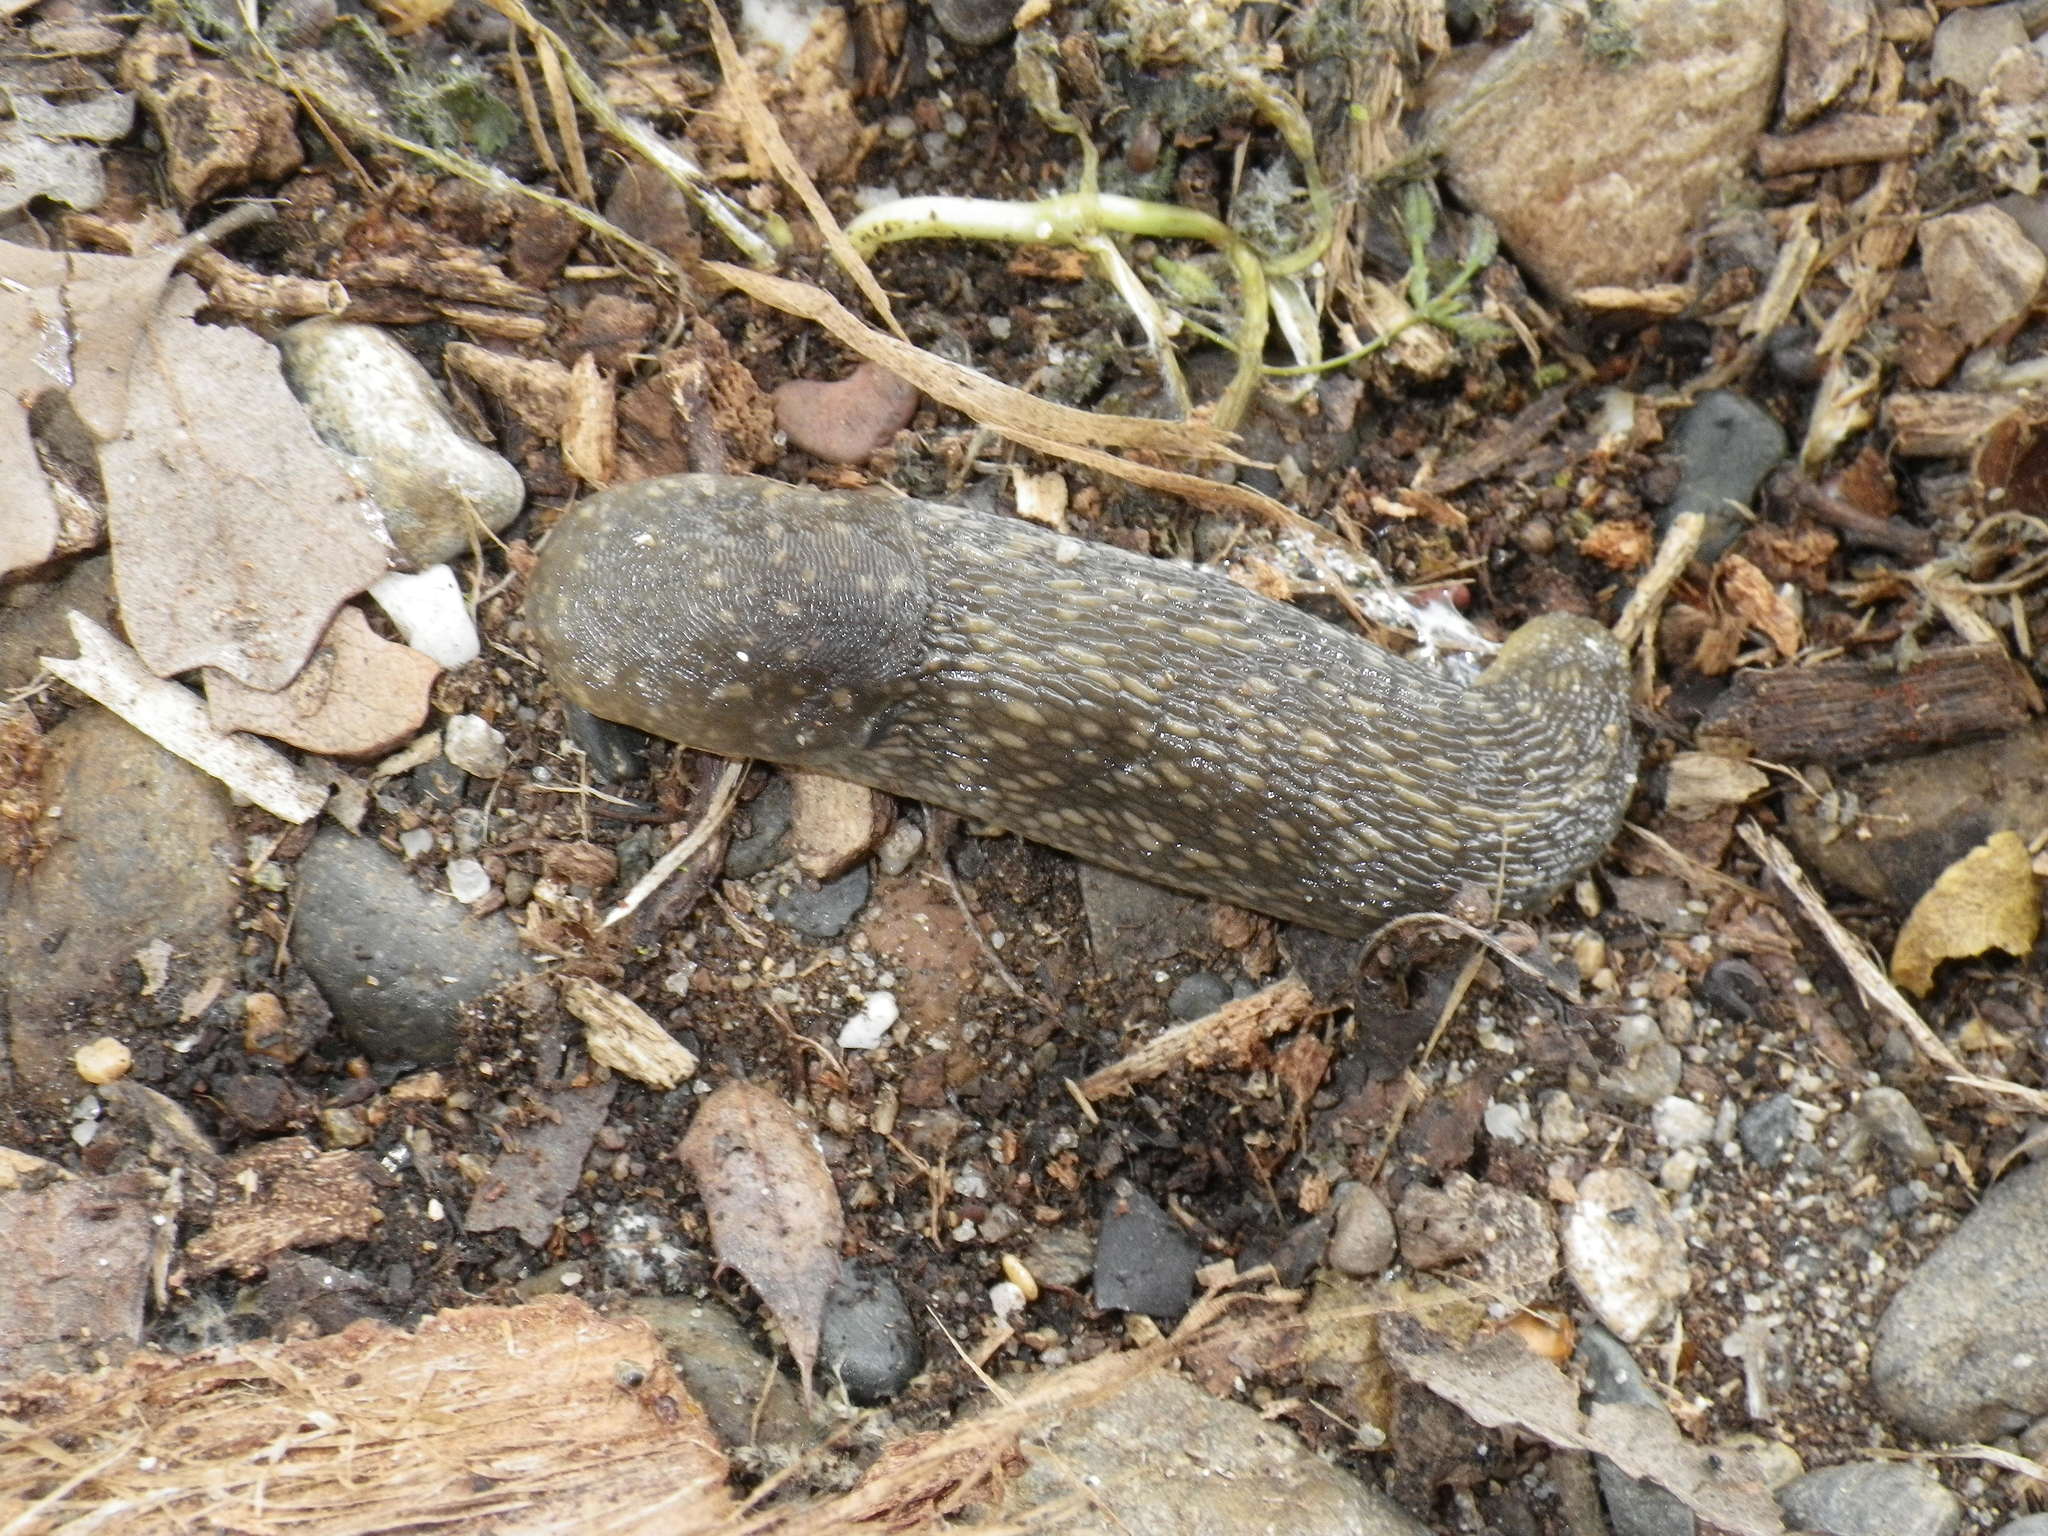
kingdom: Animalia
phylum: Mollusca
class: Gastropoda
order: Stylommatophora
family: Limacidae
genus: Limacus
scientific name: Limacus flavus
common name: Yellow gardenslug
